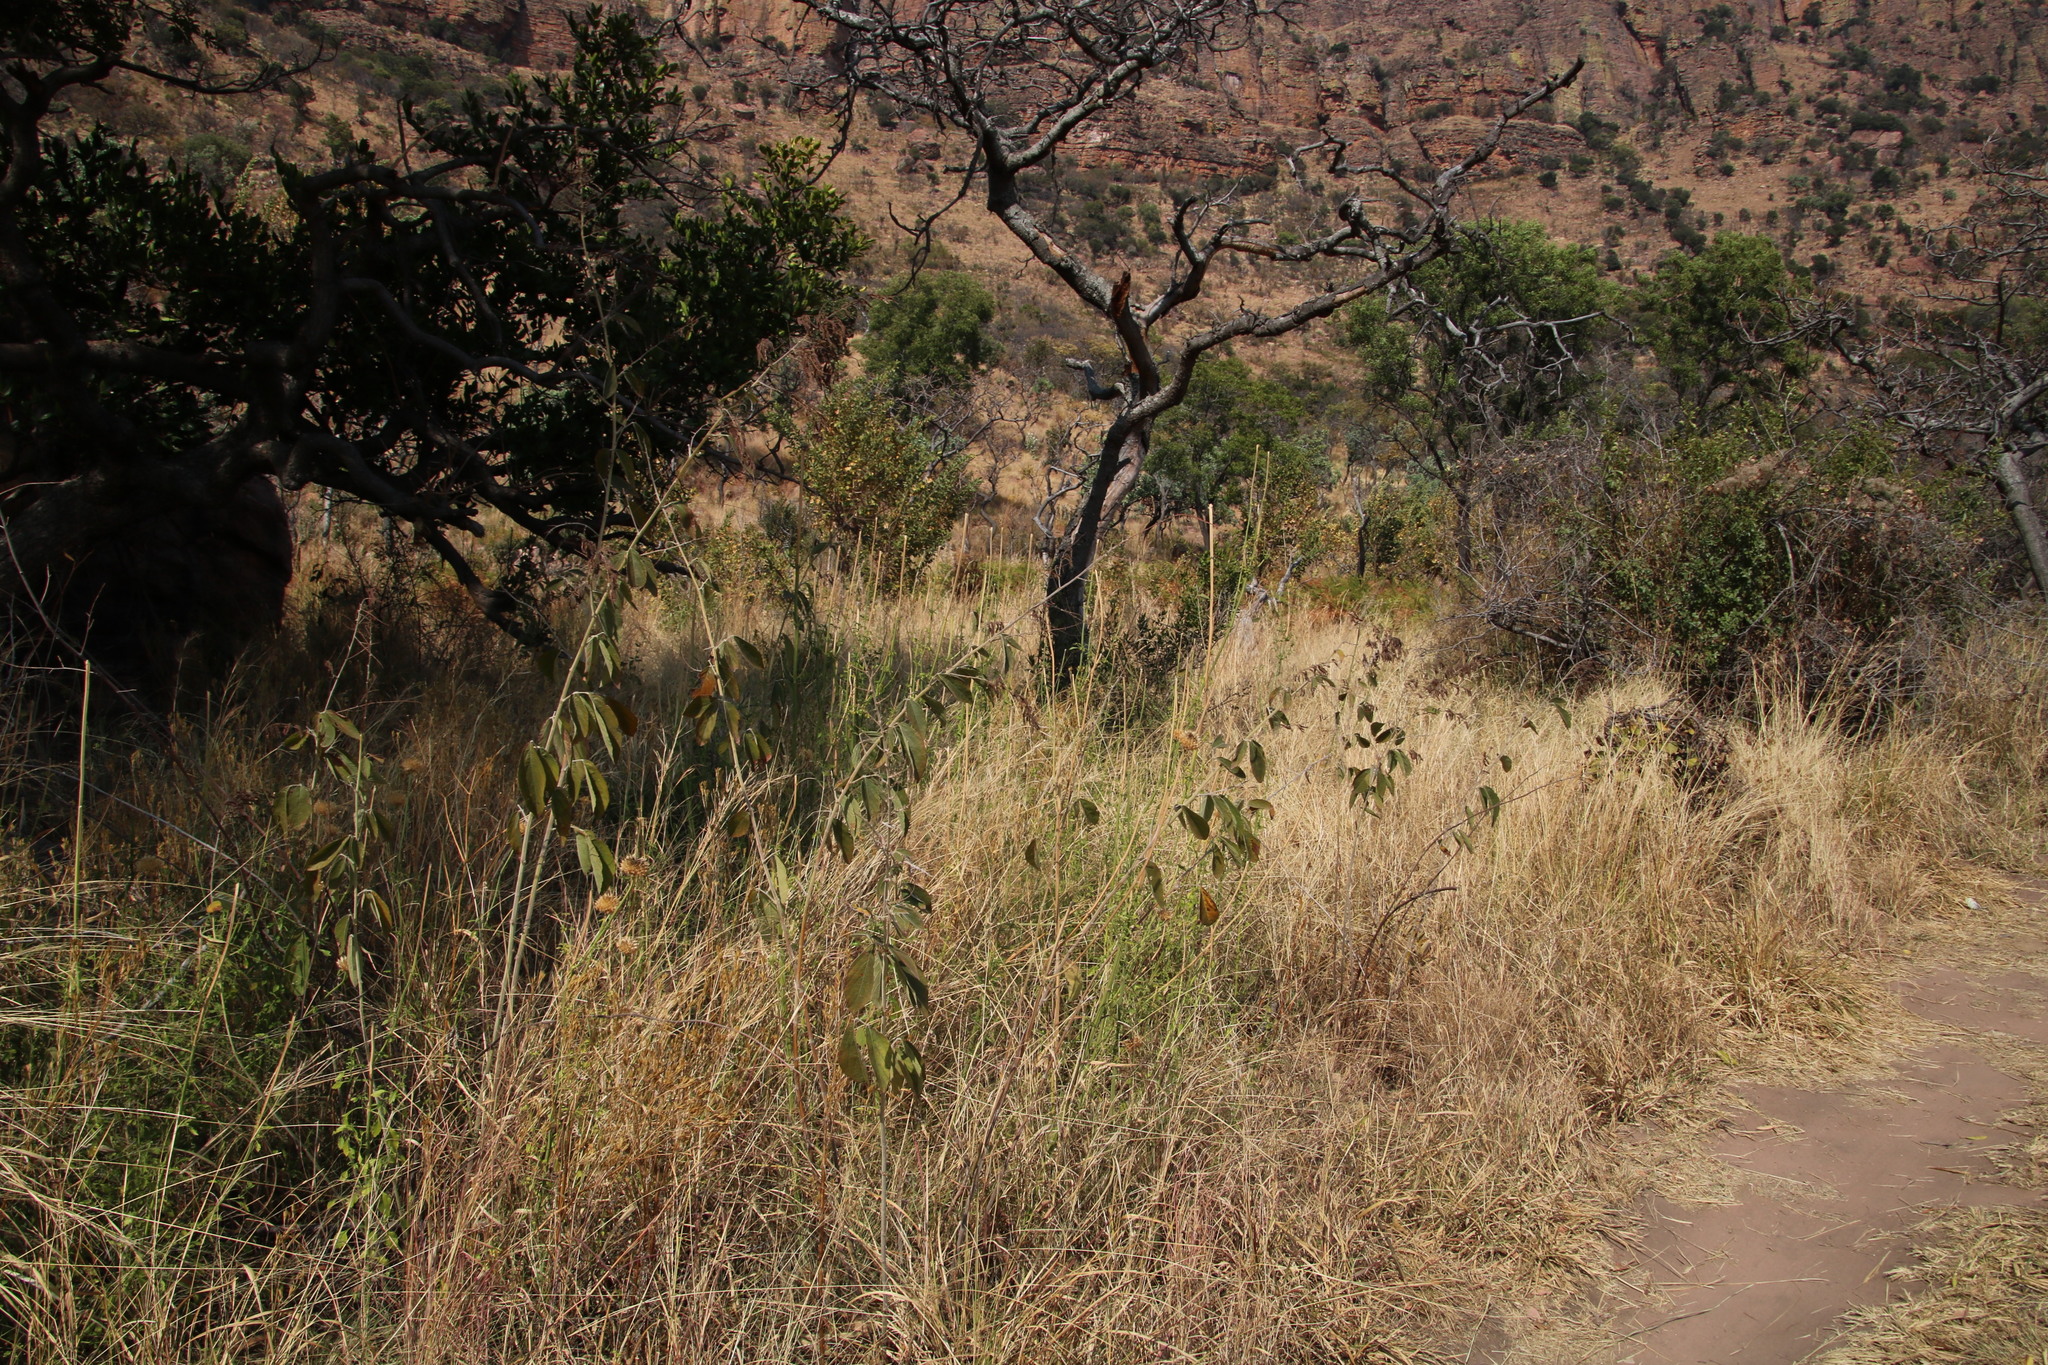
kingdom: Plantae
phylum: Tracheophyta
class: Magnoliopsida
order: Fabales
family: Fabaceae
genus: Pseudarthria
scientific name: Pseudarthria hookeri
